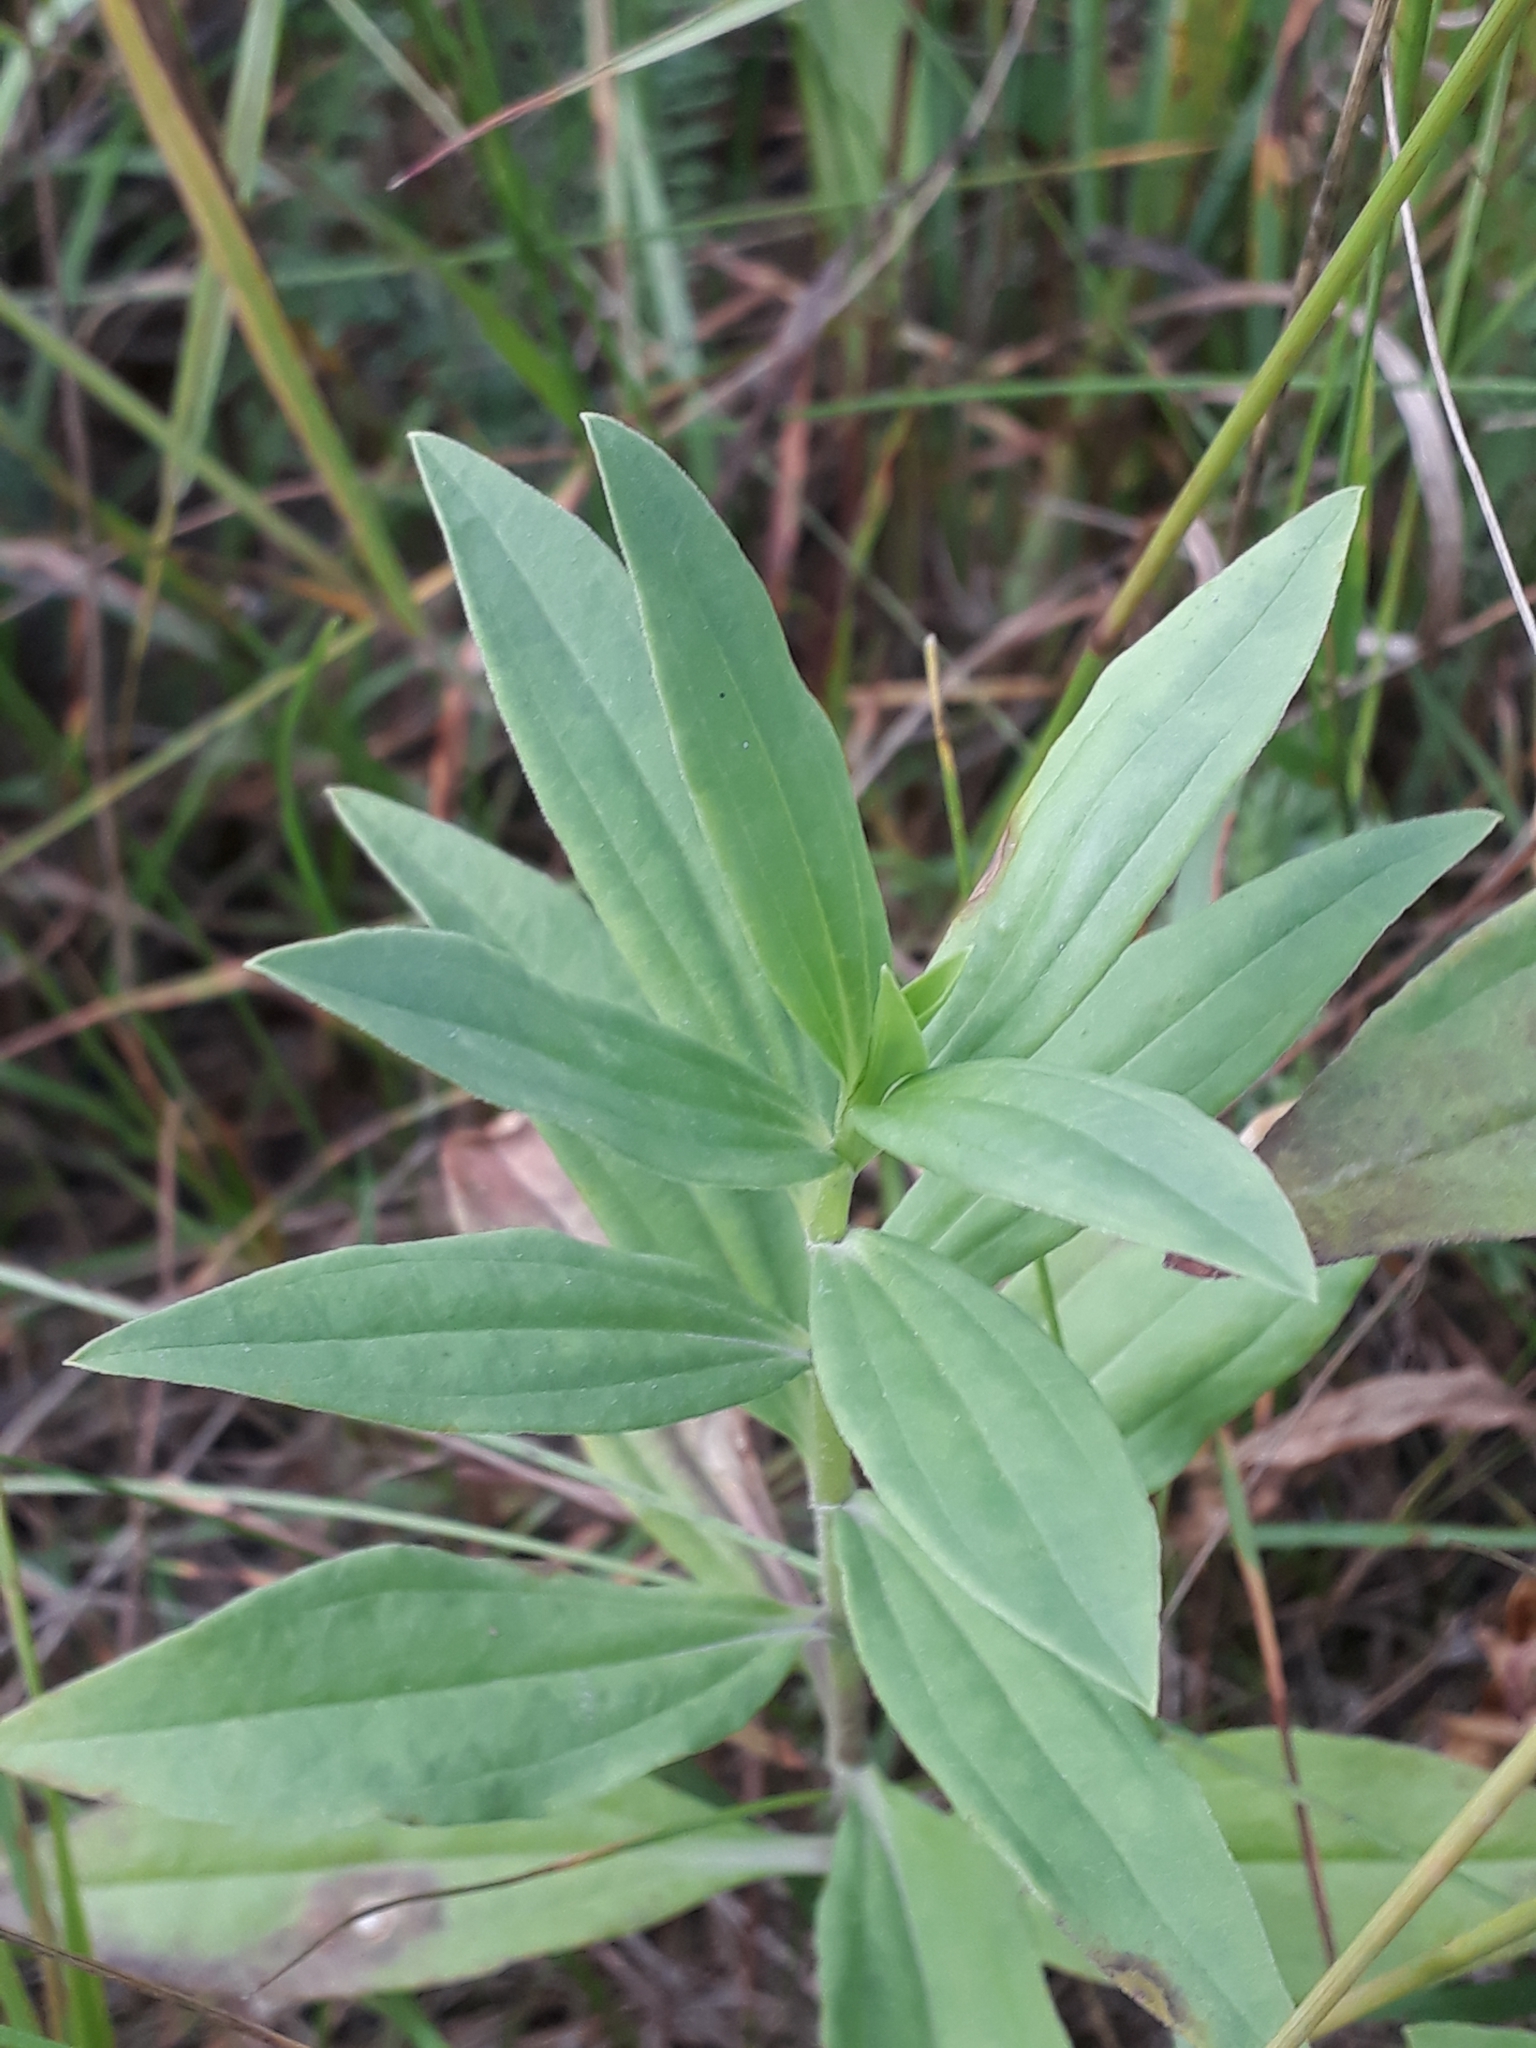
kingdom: Plantae
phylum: Tracheophyta
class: Magnoliopsida
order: Caryophyllales
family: Caryophyllaceae
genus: Saponaria
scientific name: Saponaria officinalis
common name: Soapwort
